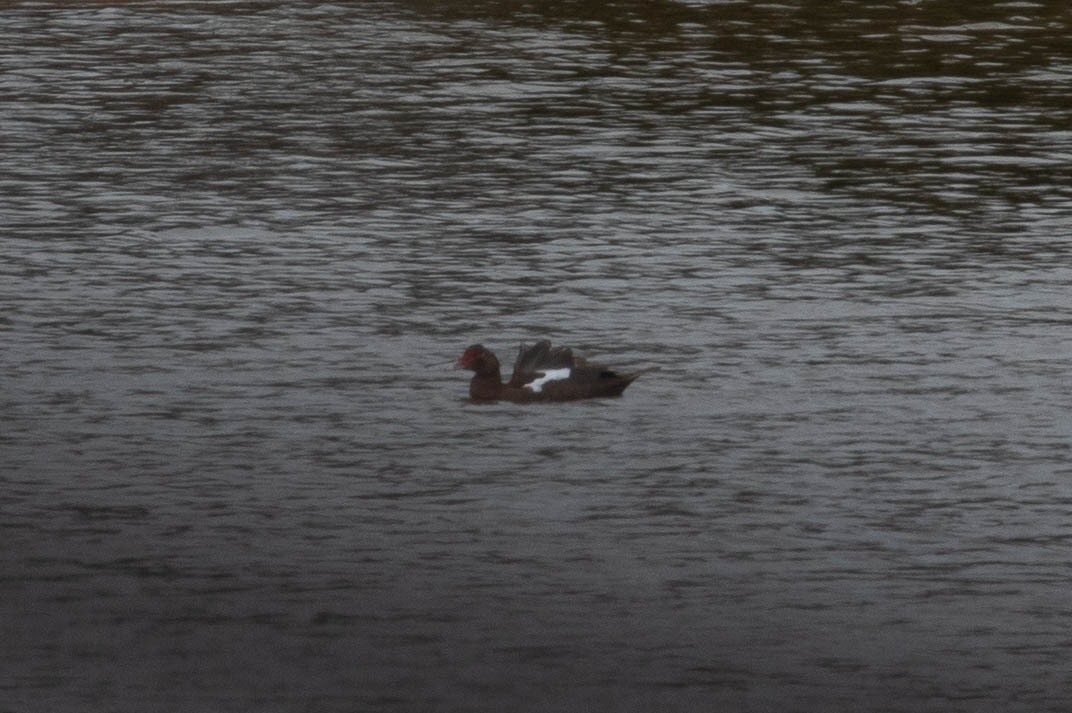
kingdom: Animalia
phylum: Chordata
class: Aves
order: Anseriformes
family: Anatidae
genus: Cairina
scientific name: Cairina moschata
